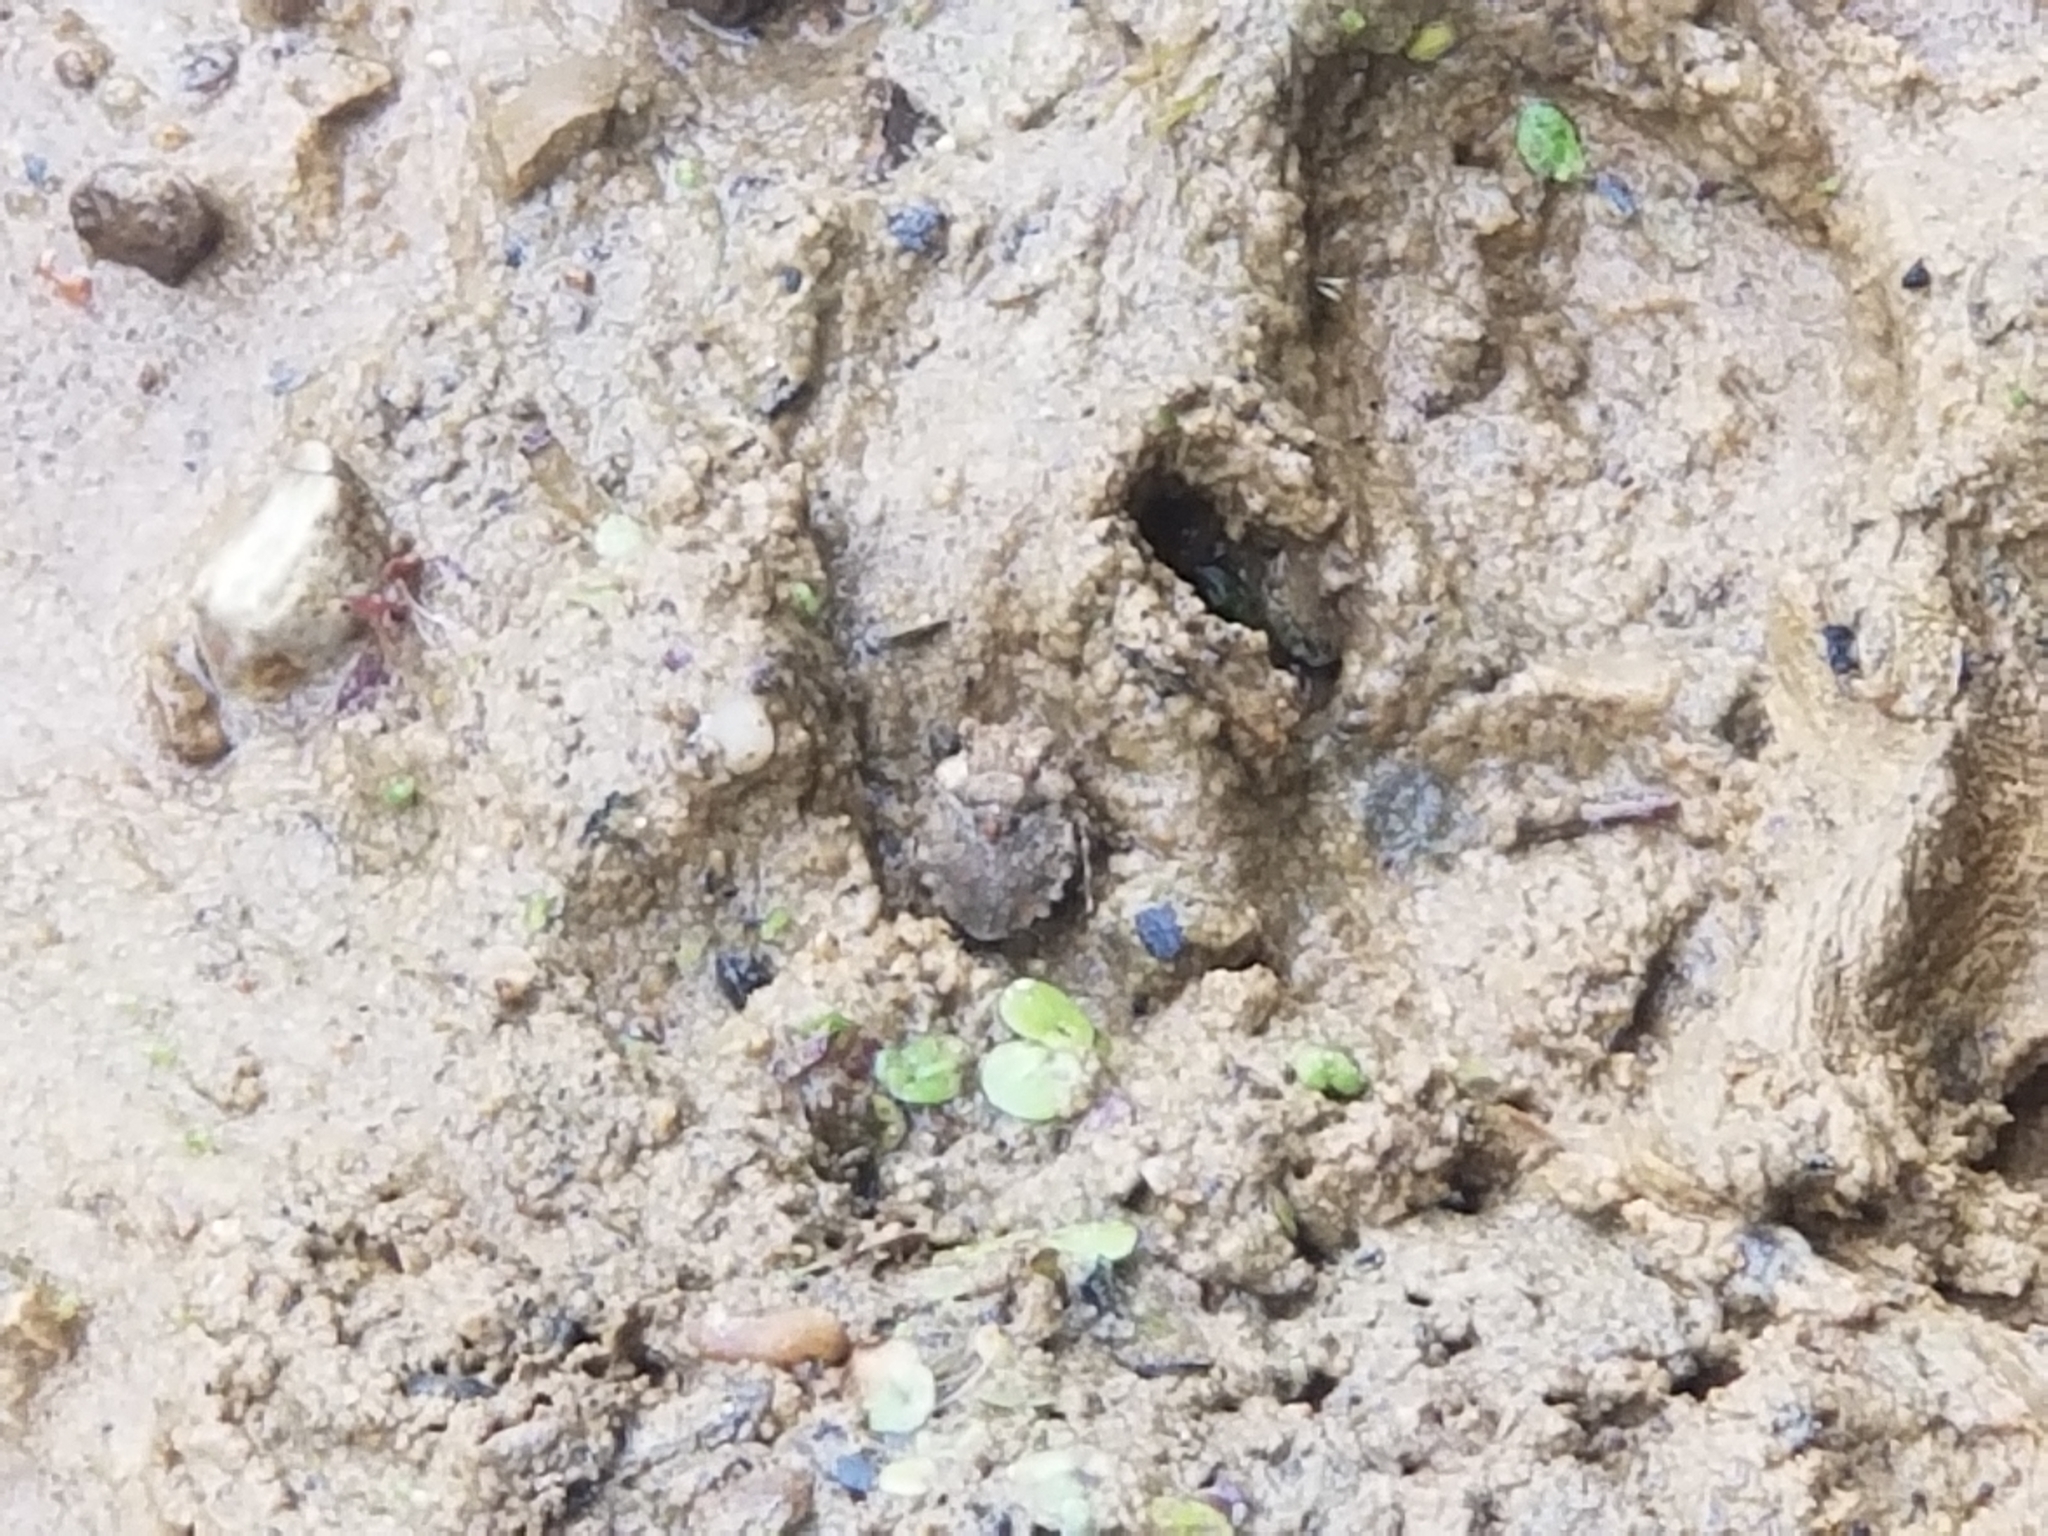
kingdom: Animalia
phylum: Arthropoda
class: Insecta
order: Hemiptera
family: Gelastocoridae
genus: Gelastocoris
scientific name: Gelastocoris oculatus
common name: Toad bug
